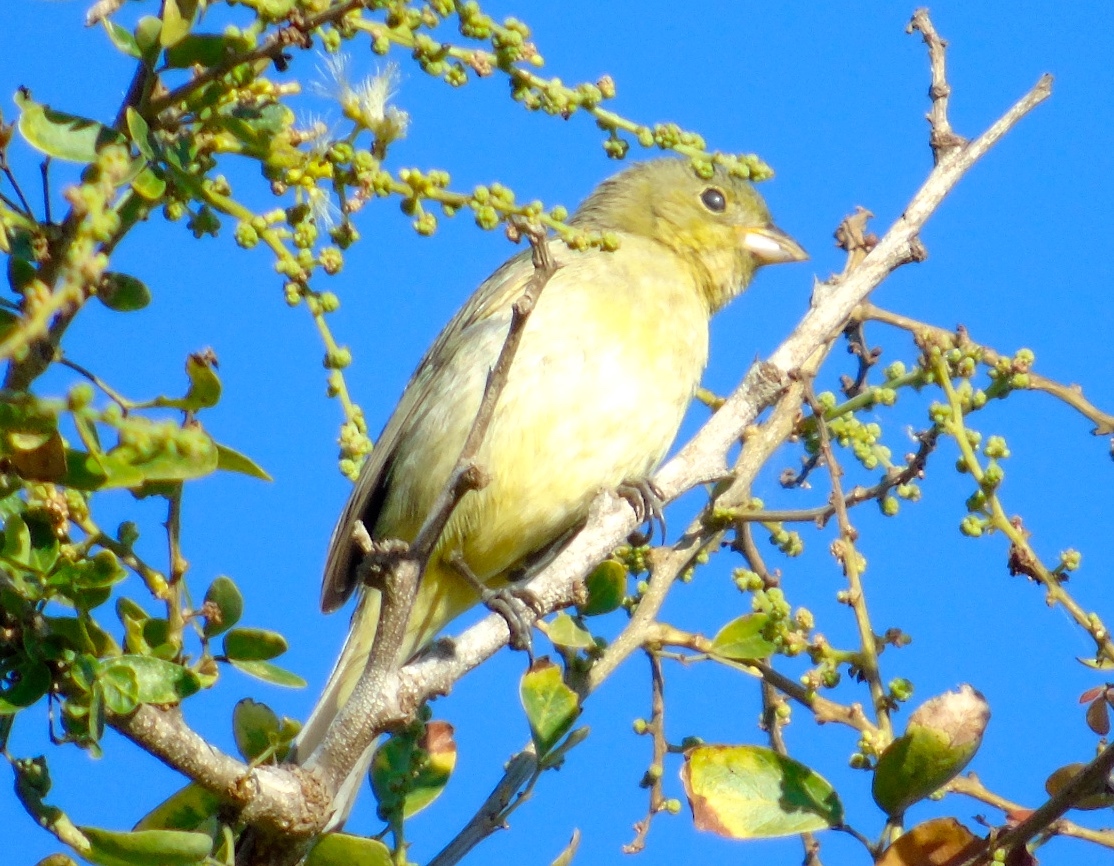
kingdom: Animalia
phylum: Chordata
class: Aves
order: Passeriformes
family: Cardinalidae
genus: Passerina
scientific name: Passerina ciris
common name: Painted bunting
